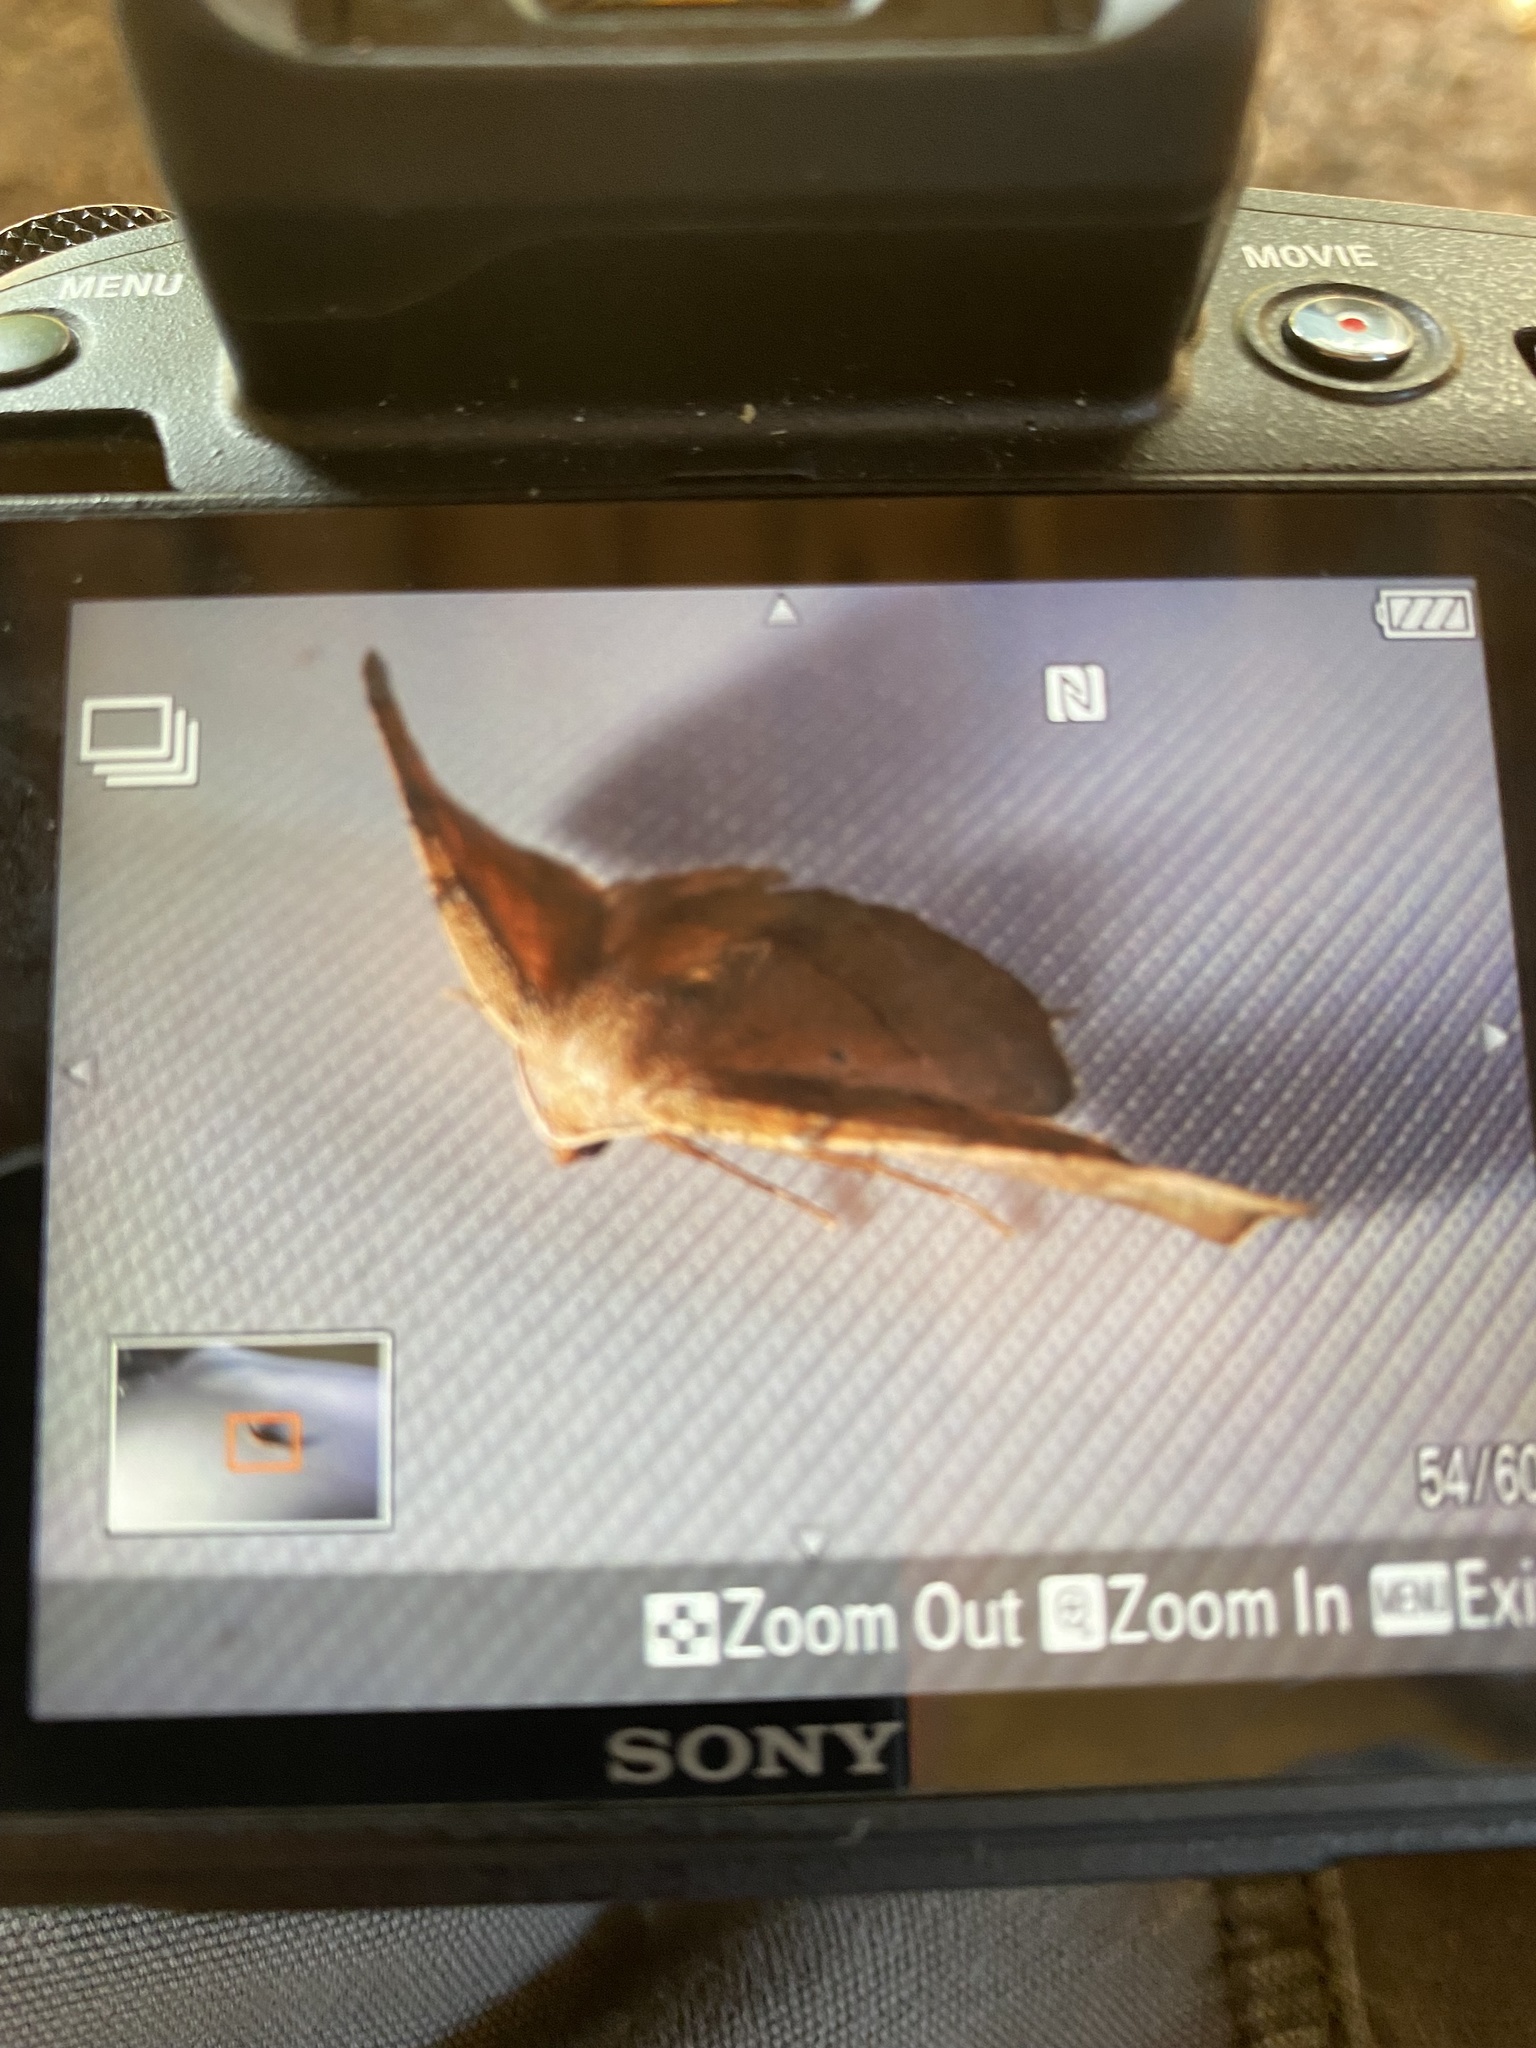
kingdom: Animalia
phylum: Arthropoda
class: Insecta
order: Lepidoptera
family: Geometridae
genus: Patalene
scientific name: Patalene olyzonaria
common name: Juniper geometer moth
